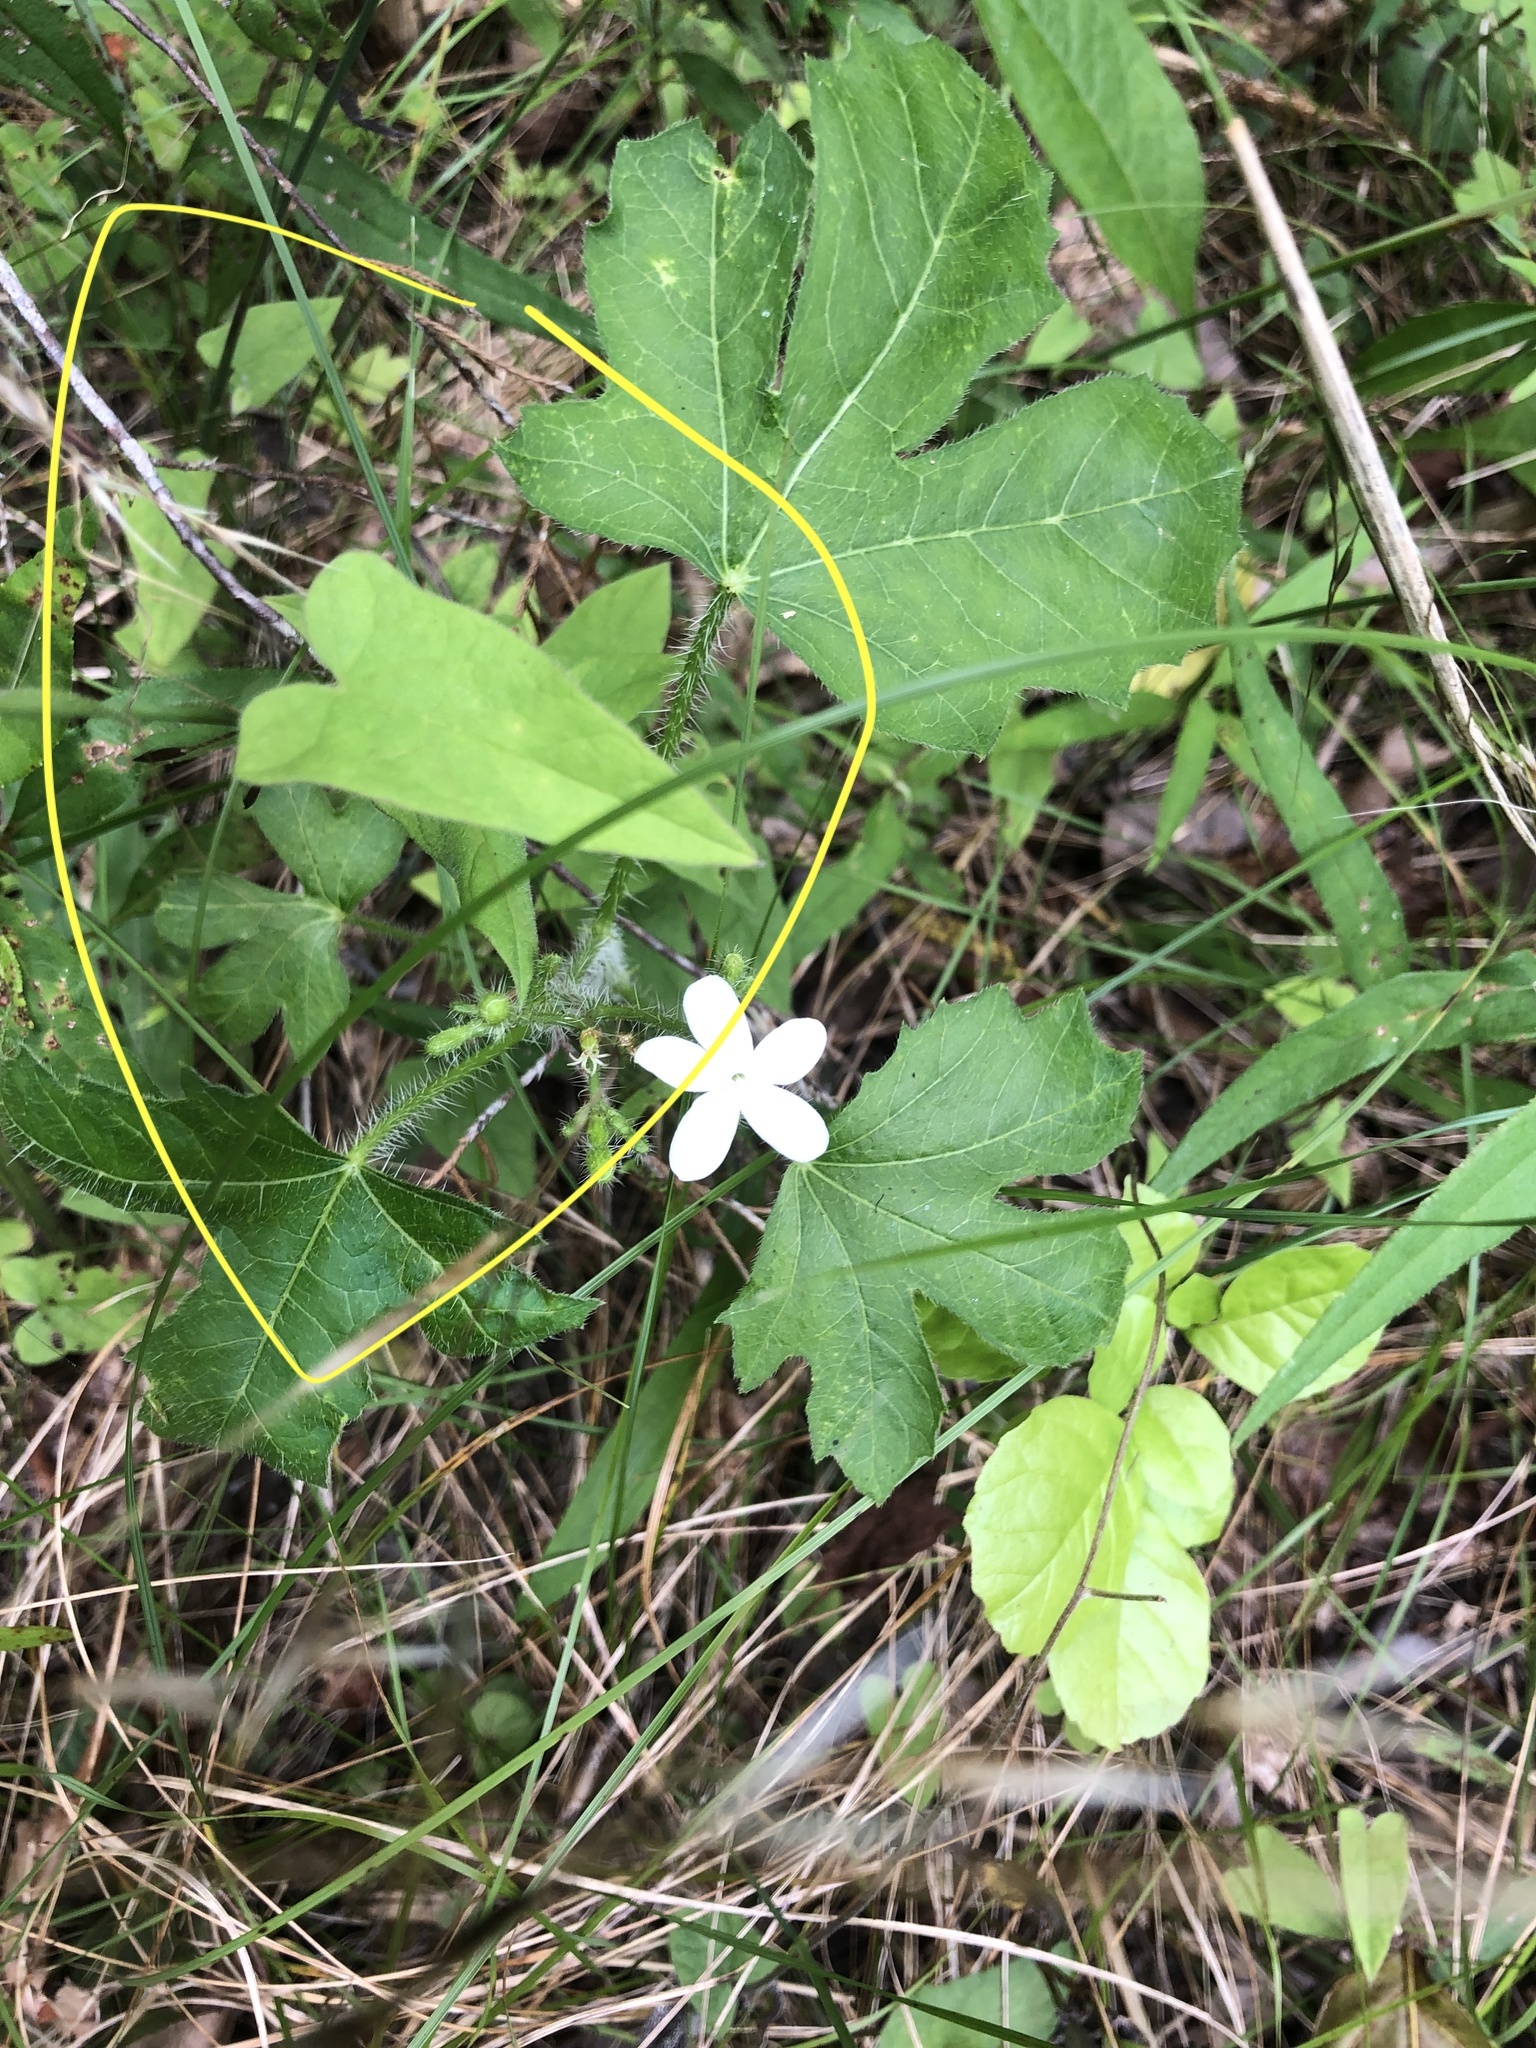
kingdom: Plantae
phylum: Tracheophyta
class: Magnoliopsida
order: Solanales
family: Convolvulaceae
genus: Calystegia
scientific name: Calystegia catesbeiana
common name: Catesby's false bindweed
